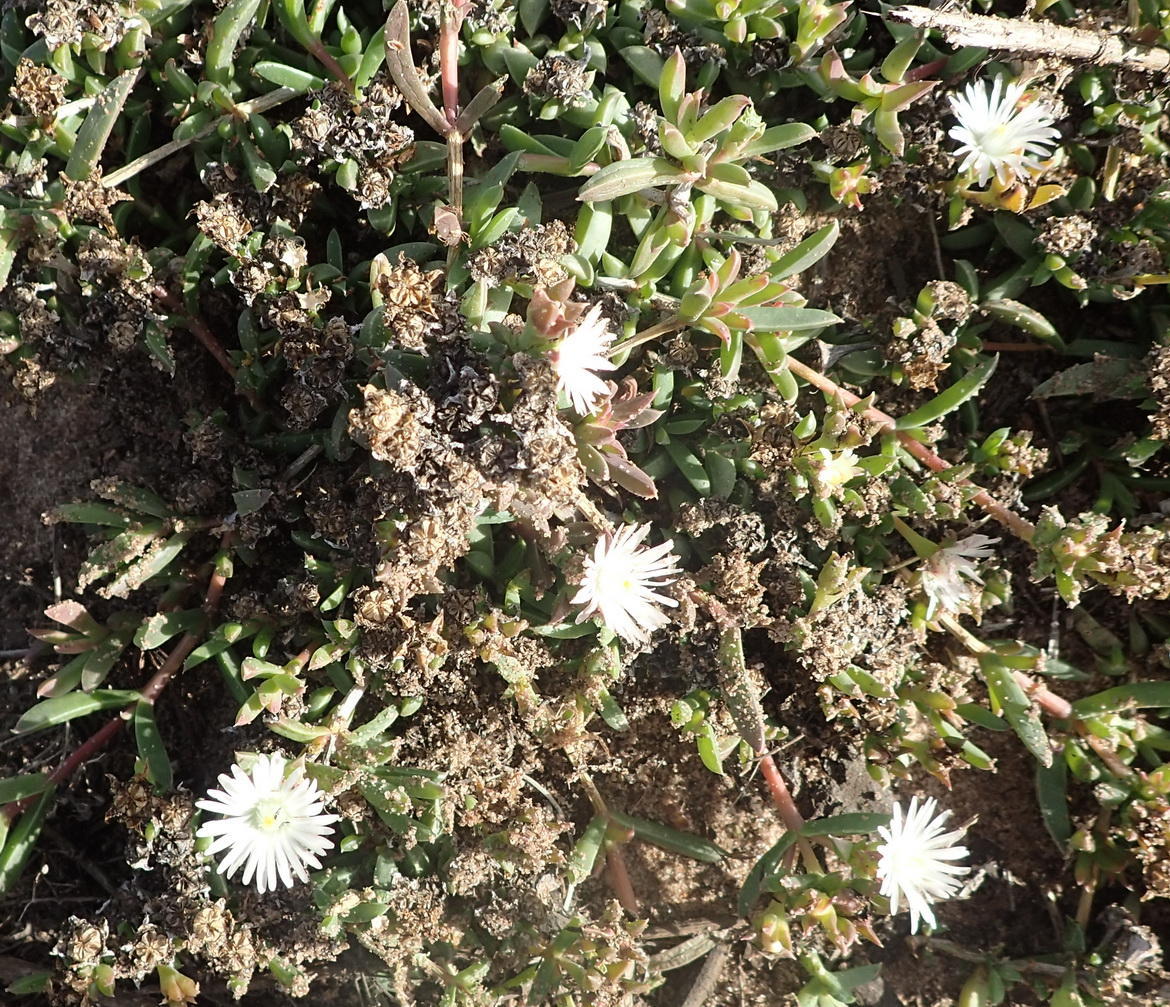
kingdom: Plantae
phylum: Tracheophyta
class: Magnoliopsida
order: Caryophyllales
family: Aizoaceae
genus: Delosperma
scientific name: Delosperma inconspicuum
